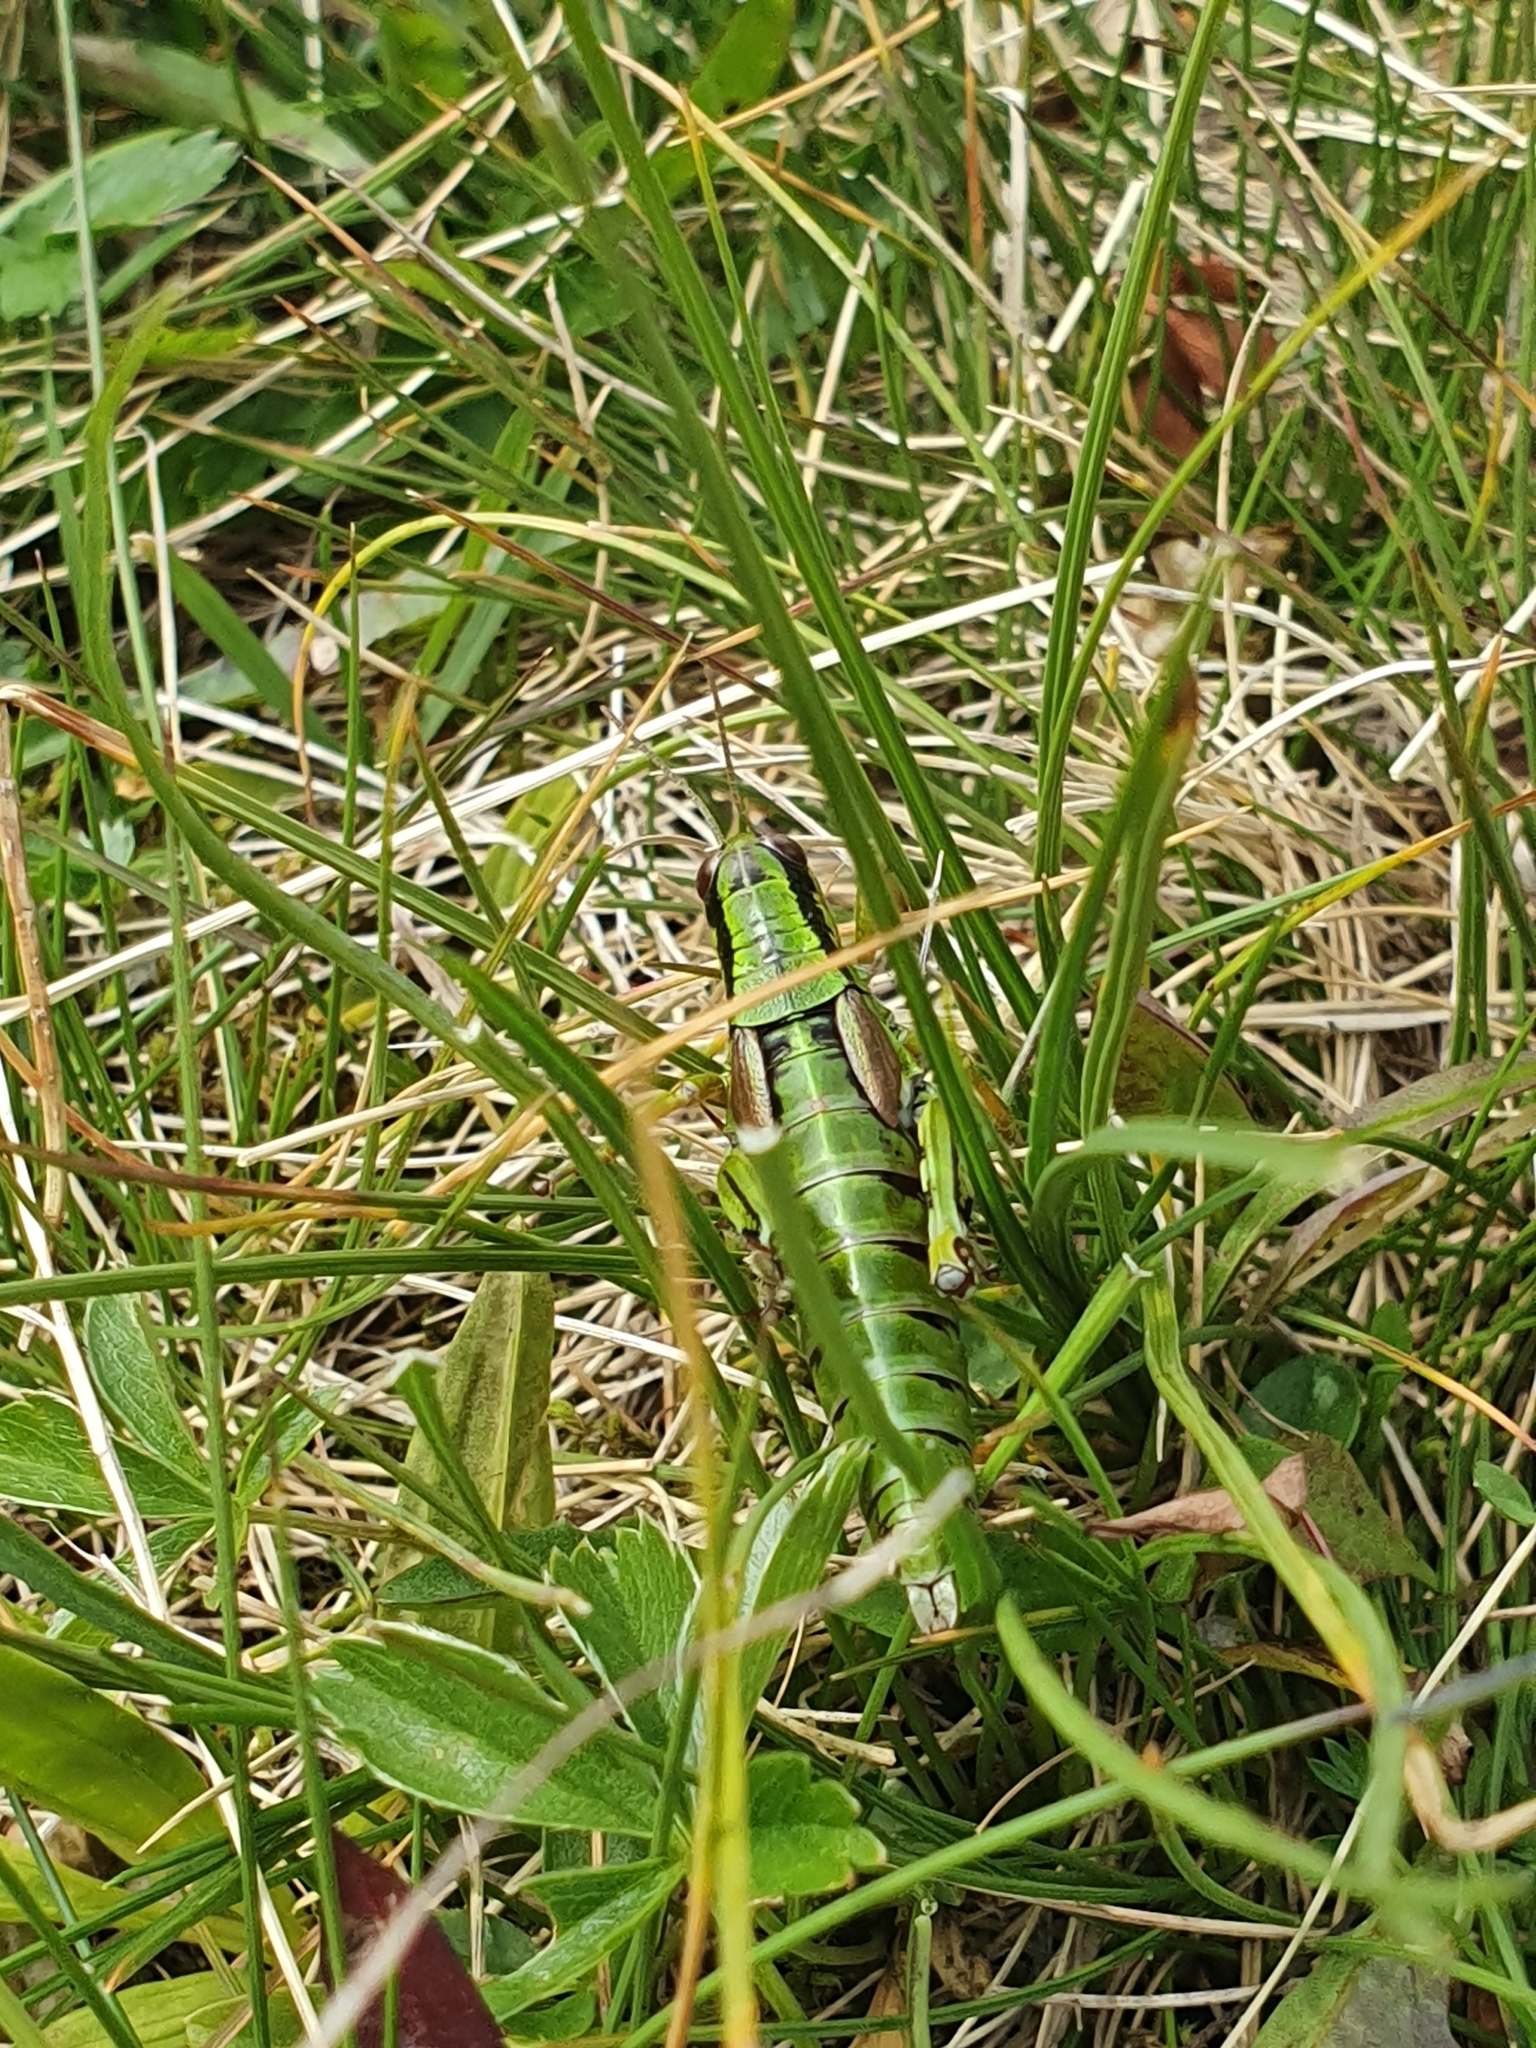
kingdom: Animalia
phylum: Arthropoda
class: Insecta
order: Orthoptera
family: Acrididae
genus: Miramella
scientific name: Miramella alpina
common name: Green mountain grasshopper
